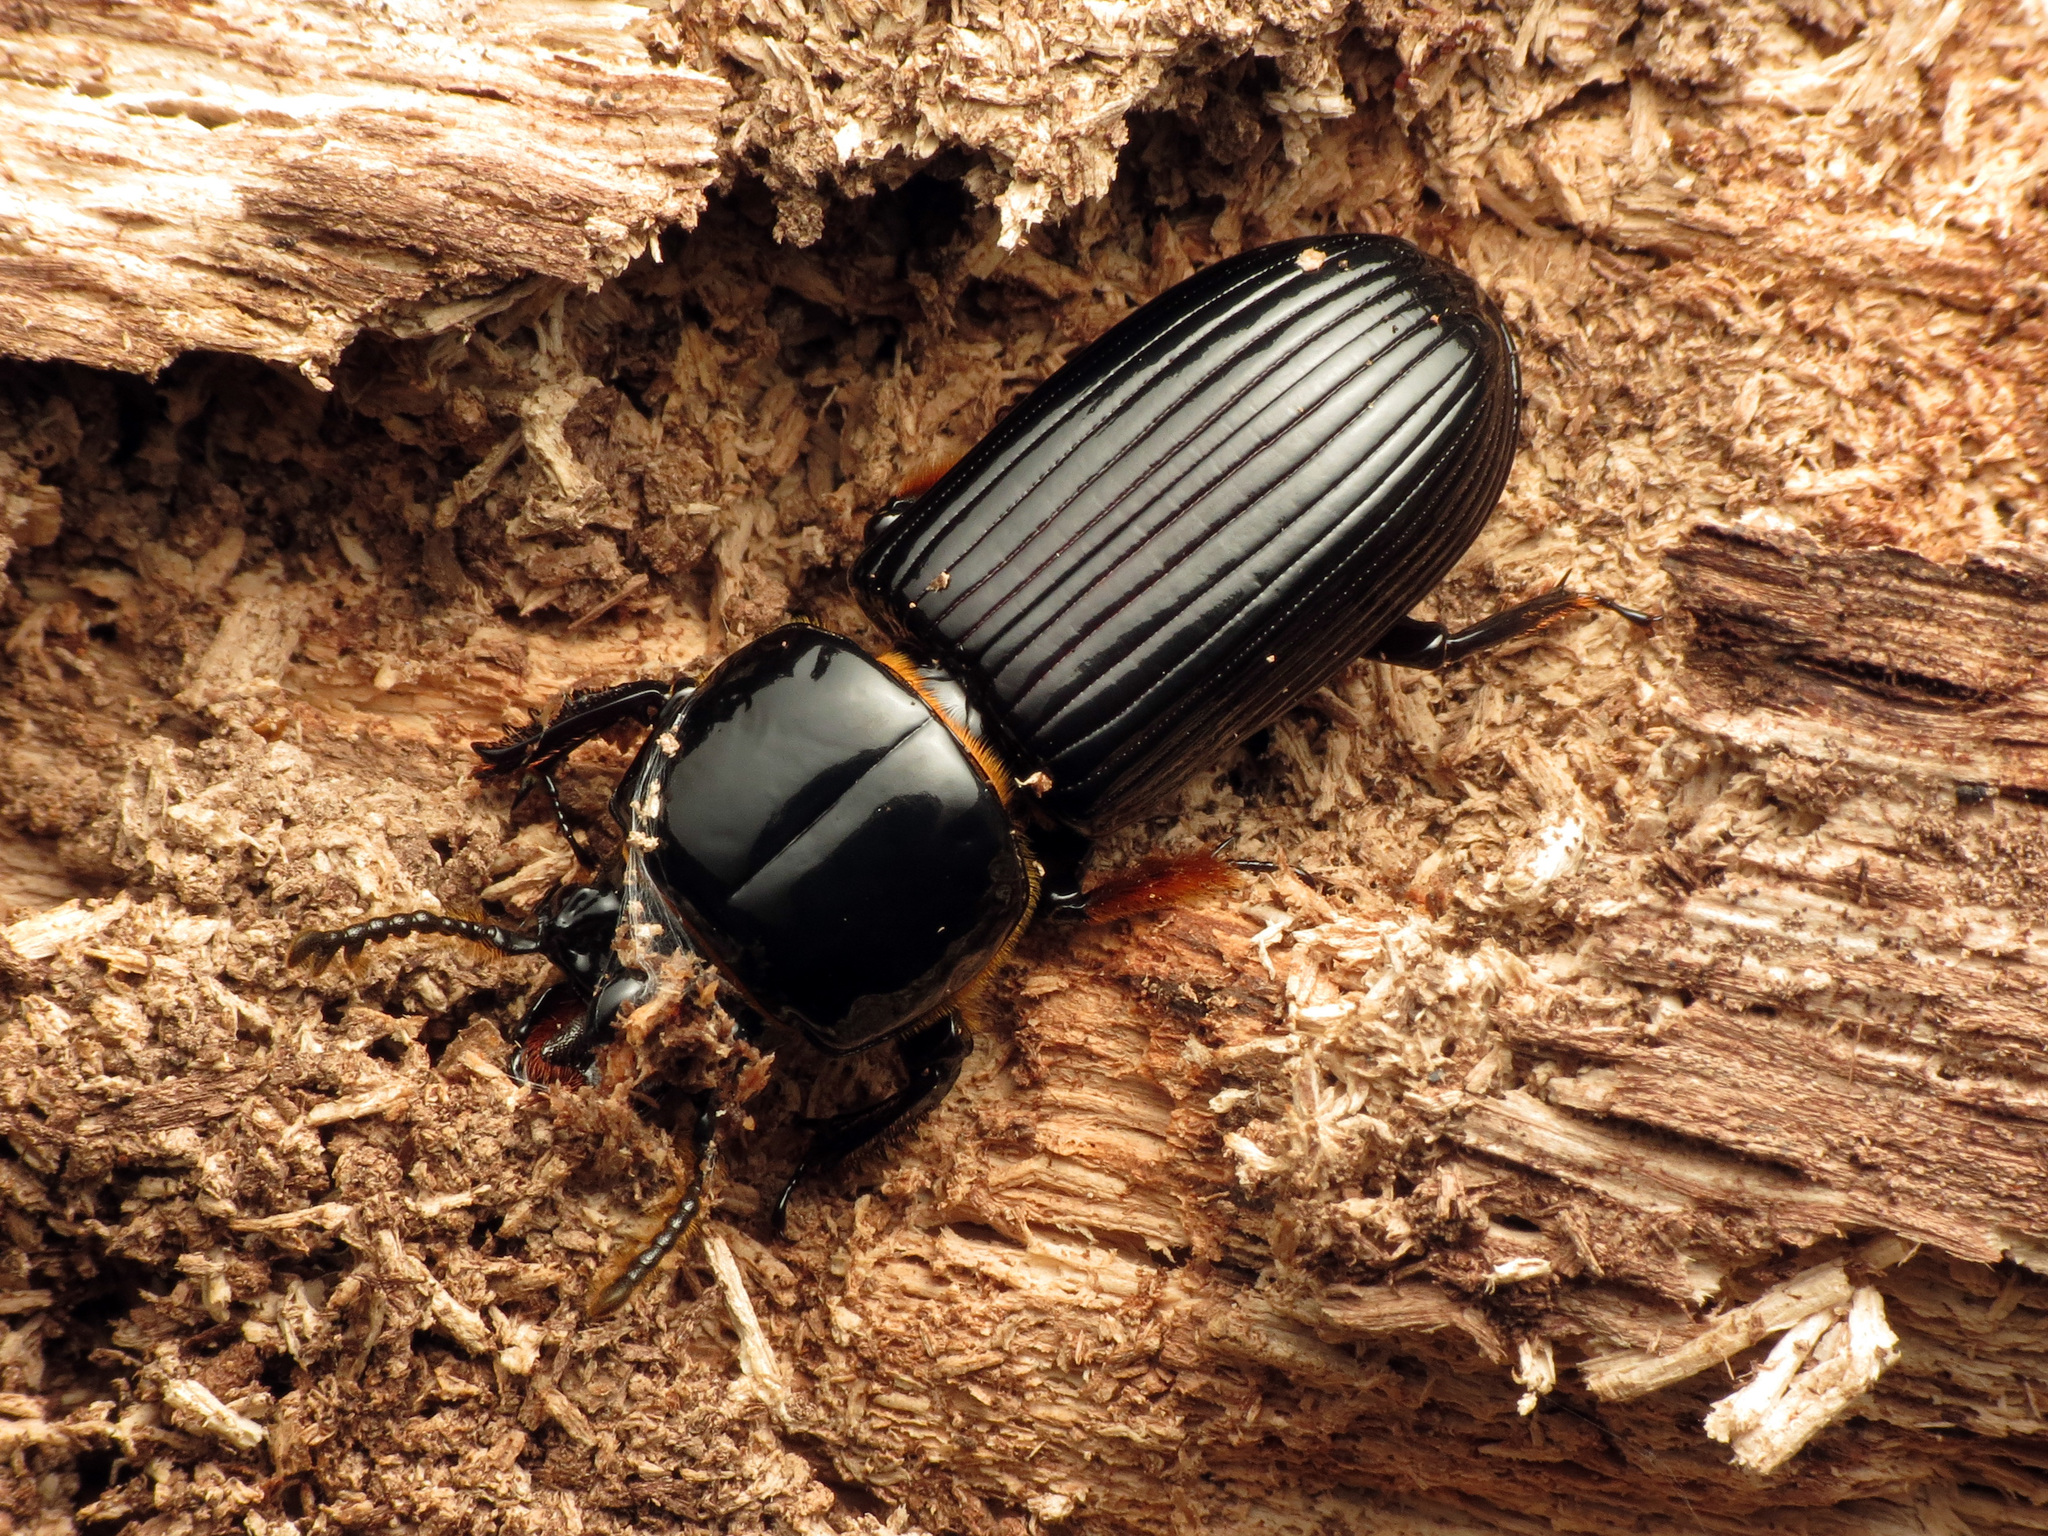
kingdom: Animalia
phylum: Arthropoda
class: Insecta
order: Coleoptera
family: Passalidae
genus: Odontotaenius
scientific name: Odontotaenius disjunctus
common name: Patent leather beetle
